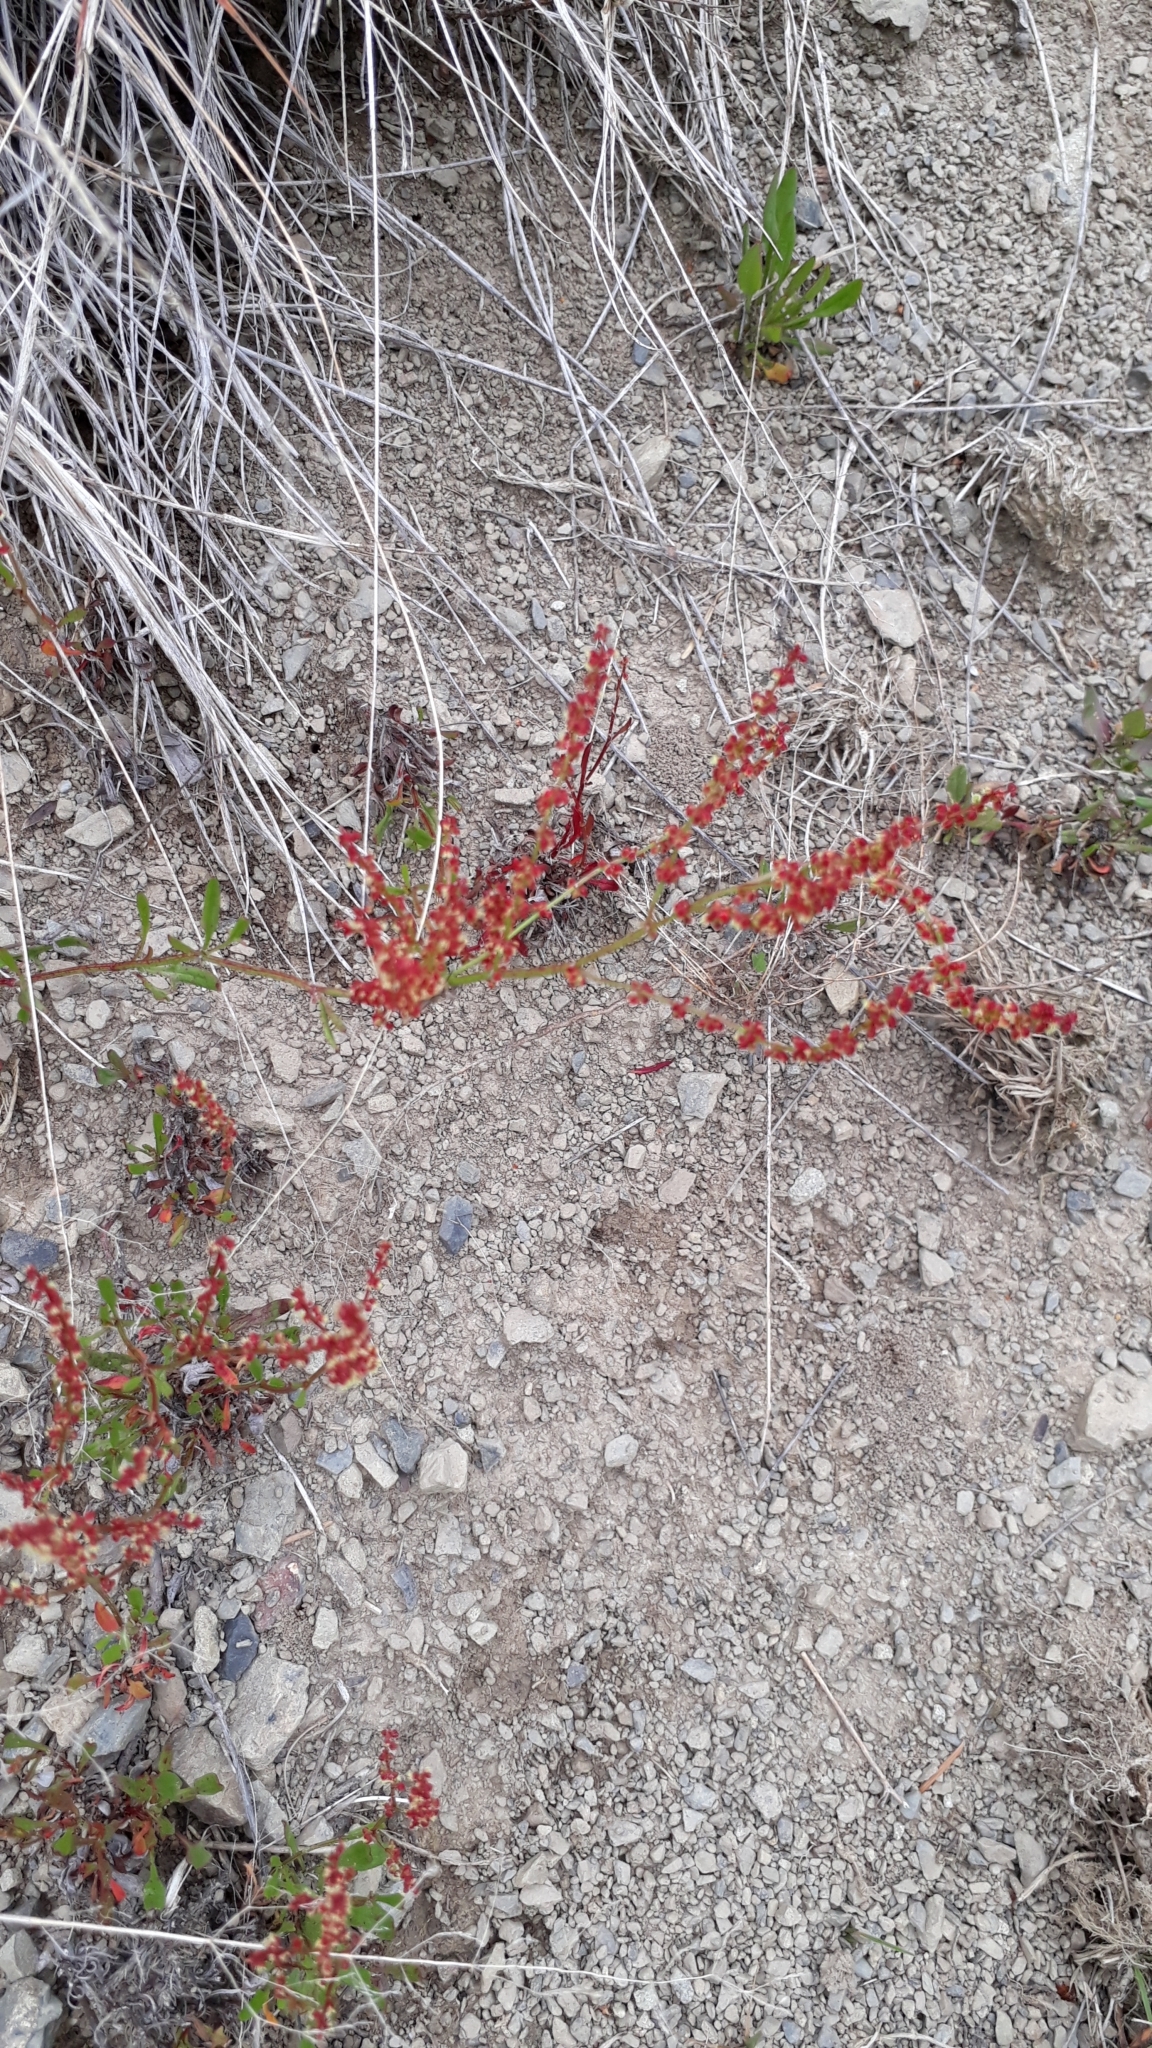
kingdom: Plantae
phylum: Tracheophyta
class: Magnoliopsida
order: Caryophyllales
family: Polygonaceae
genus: Rumex
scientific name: Rumex acetosella
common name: Common sheep sorrel
